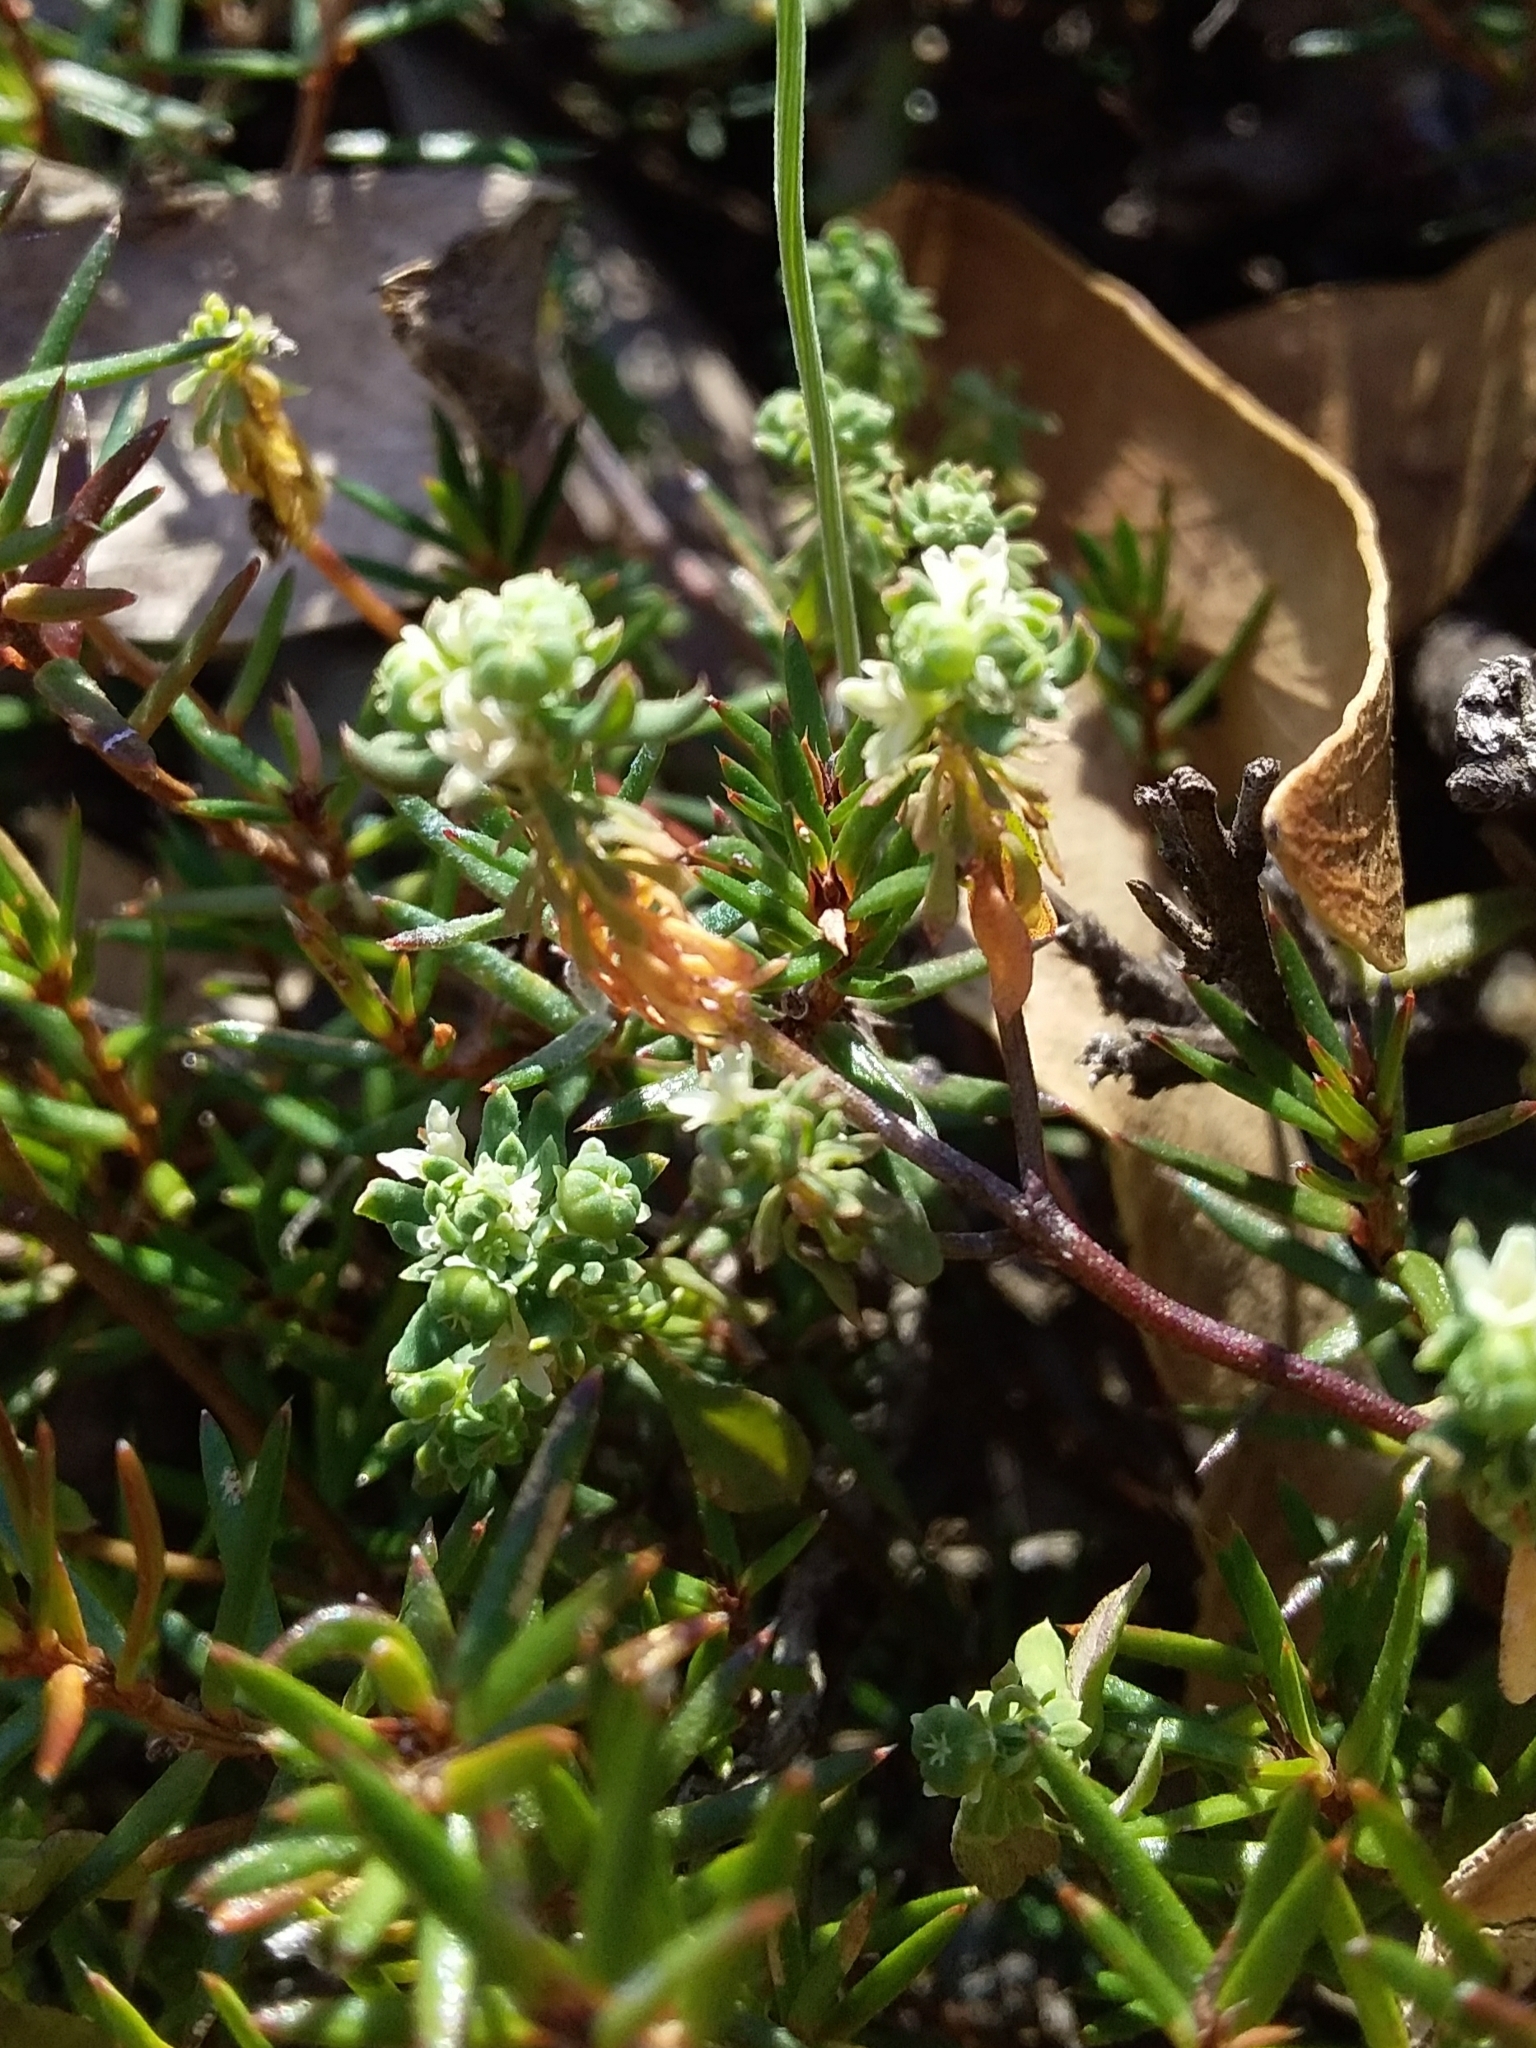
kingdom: Plantae
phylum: Tracheophyta
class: Magnoliopsida
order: Malpighiales
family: Phyllanthaceae
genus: Poranthera
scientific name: Poranthera microphylla
